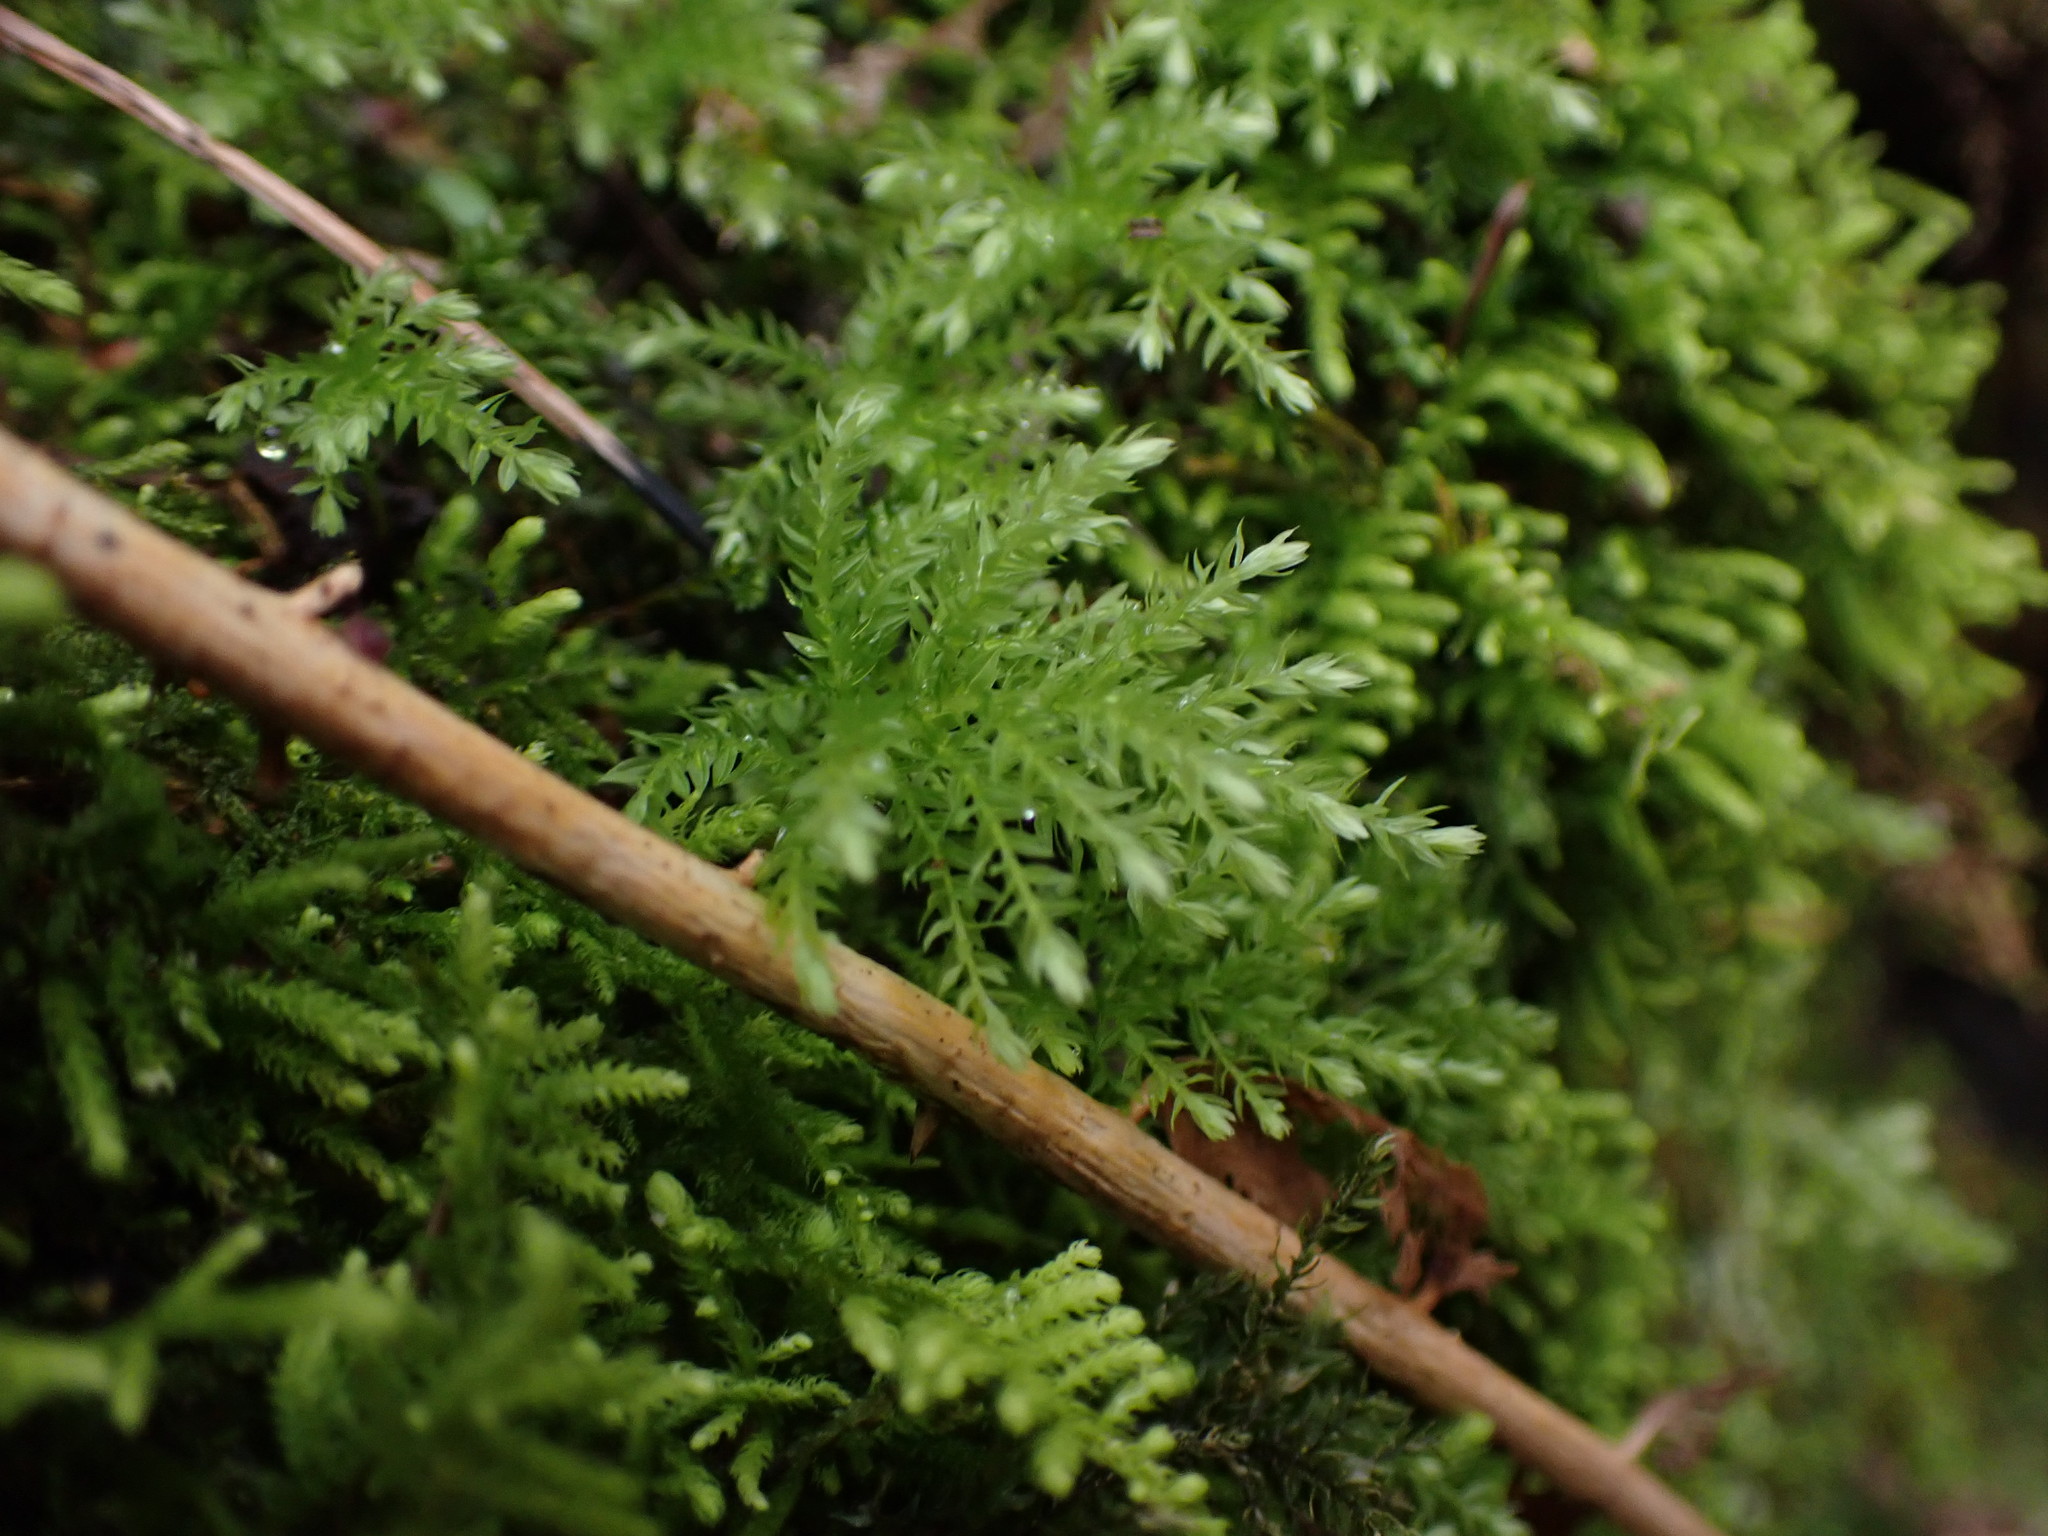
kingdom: Plantae
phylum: Bryophyta
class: Bryopsida
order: Bryales
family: Mniaceae
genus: Leucolepis
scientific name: Leucolepis acanthoneura
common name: Leucolepis umbrella moss
